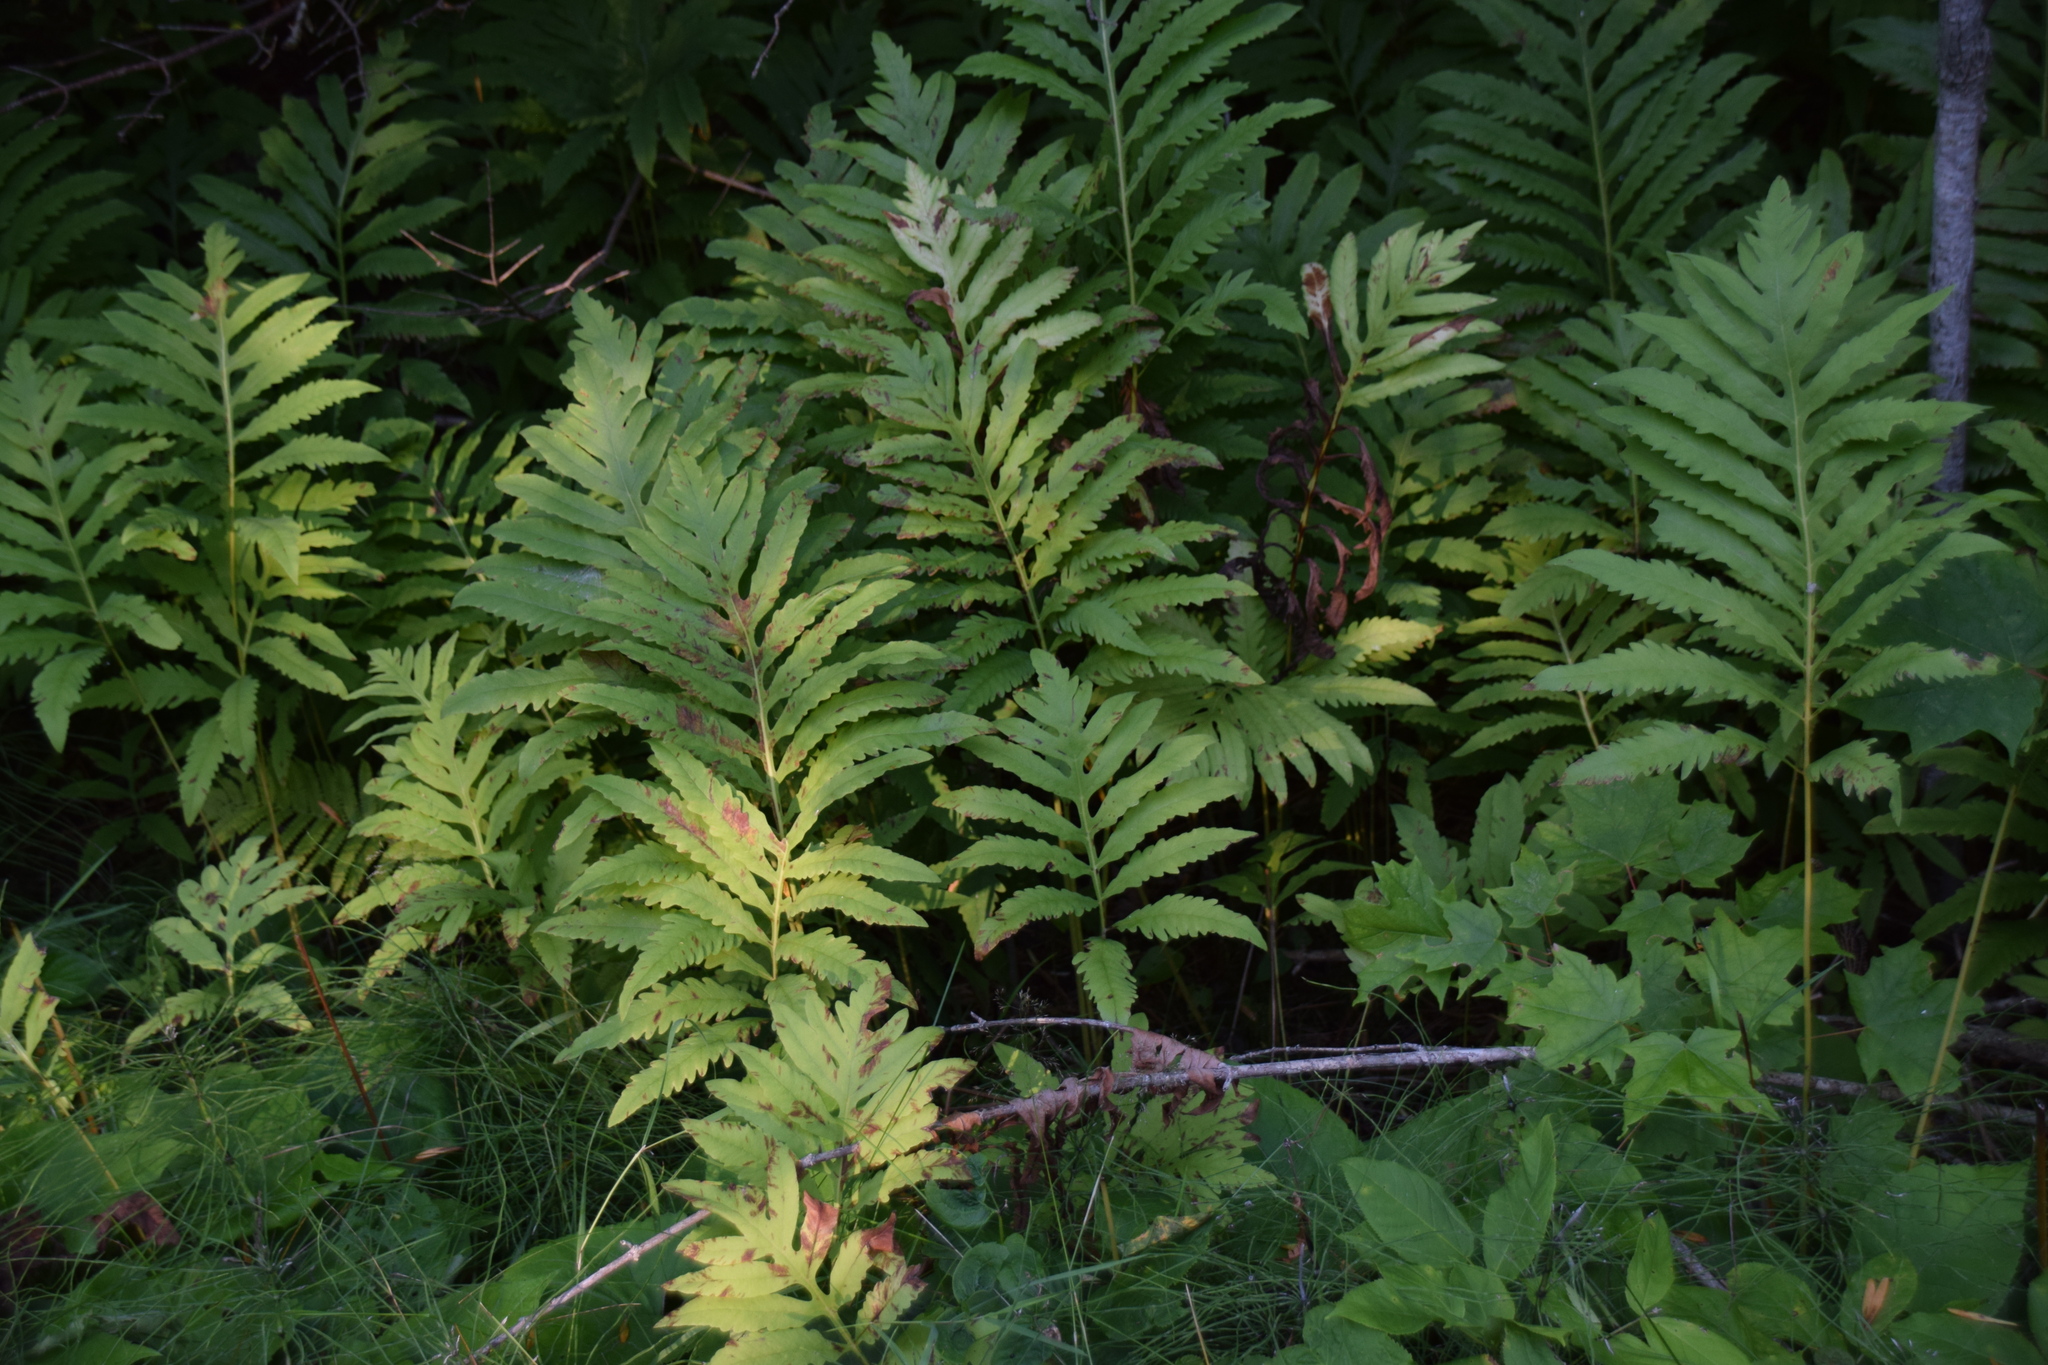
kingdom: Plantae
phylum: Tracheophyta
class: Polypodiopsida
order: Polypodiales
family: Onocleaceae
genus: Onoclea
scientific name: Onoclea sensibilis
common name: Sensitive fern
